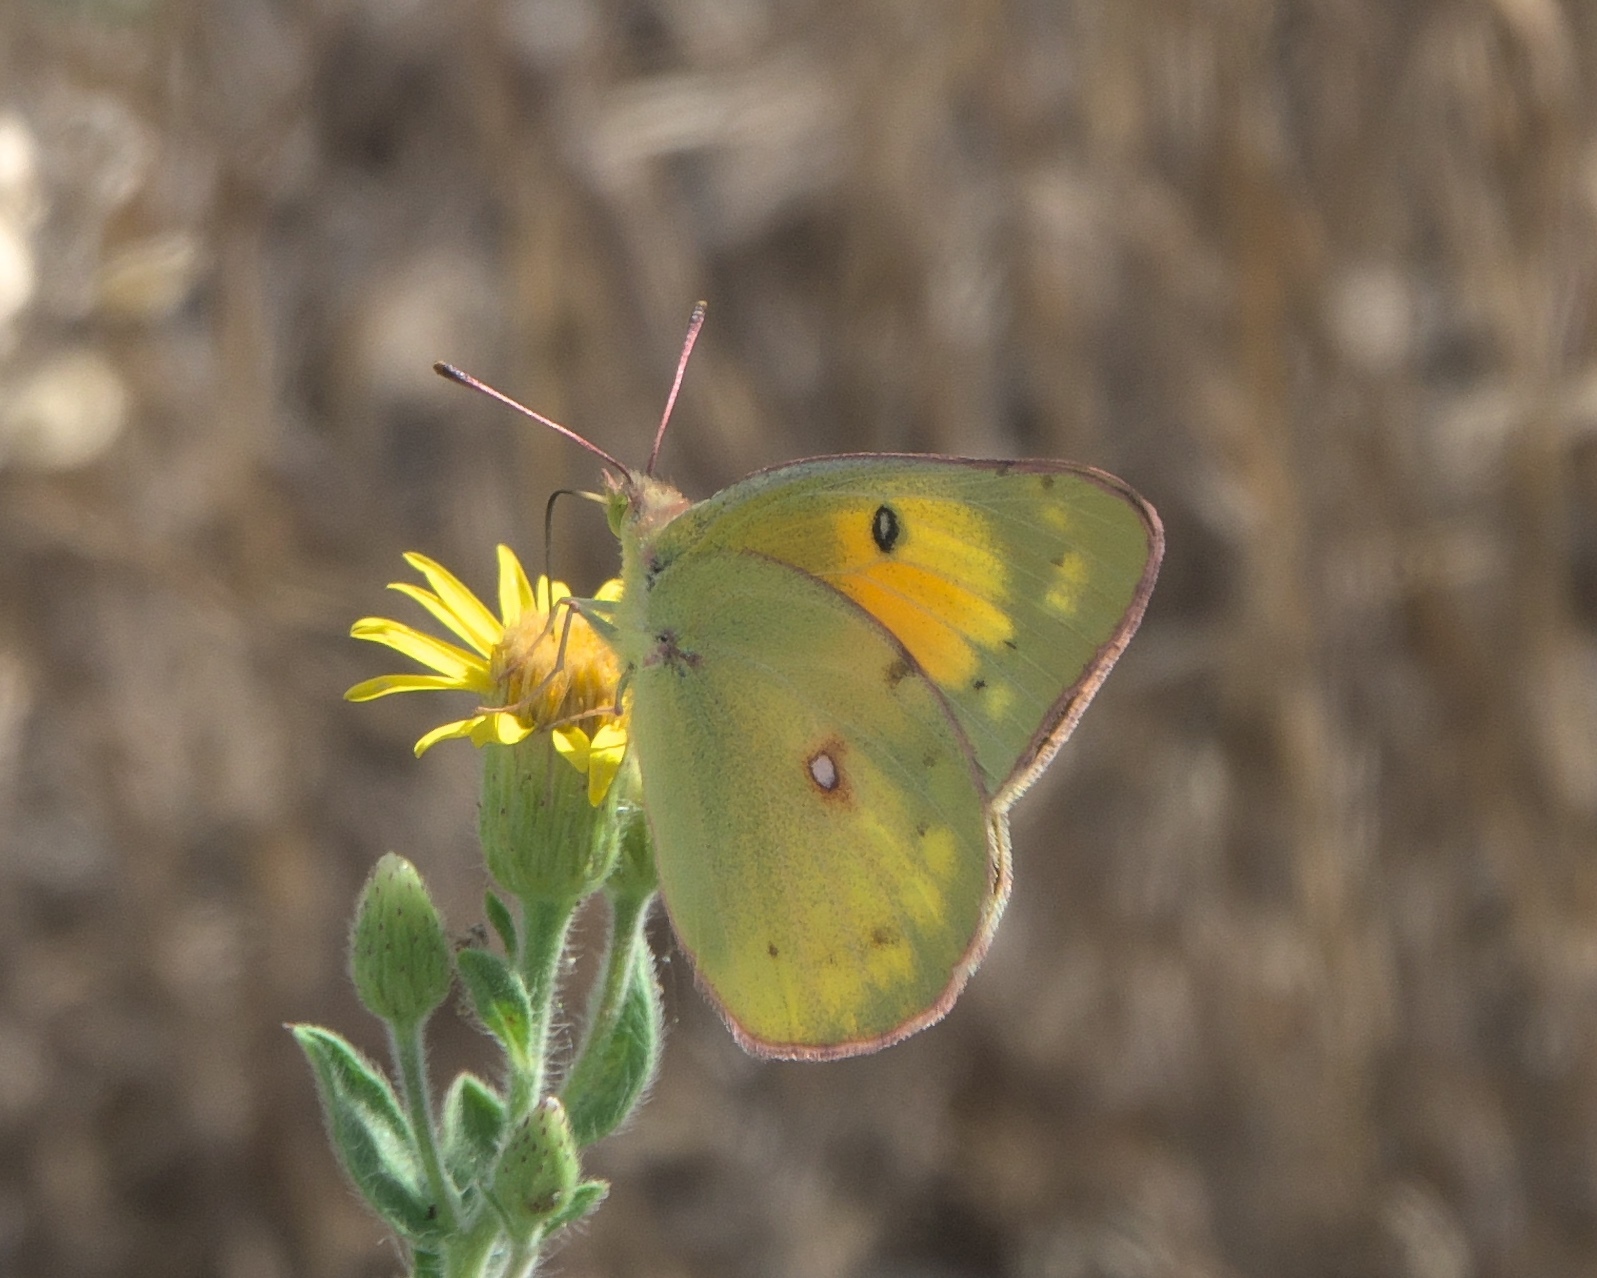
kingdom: Animalia
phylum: Arthropoda
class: Insecta
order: Lepidoptera
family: Pieridae
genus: Colias
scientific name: Colias eurytheme
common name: Alfalfa butterfly
